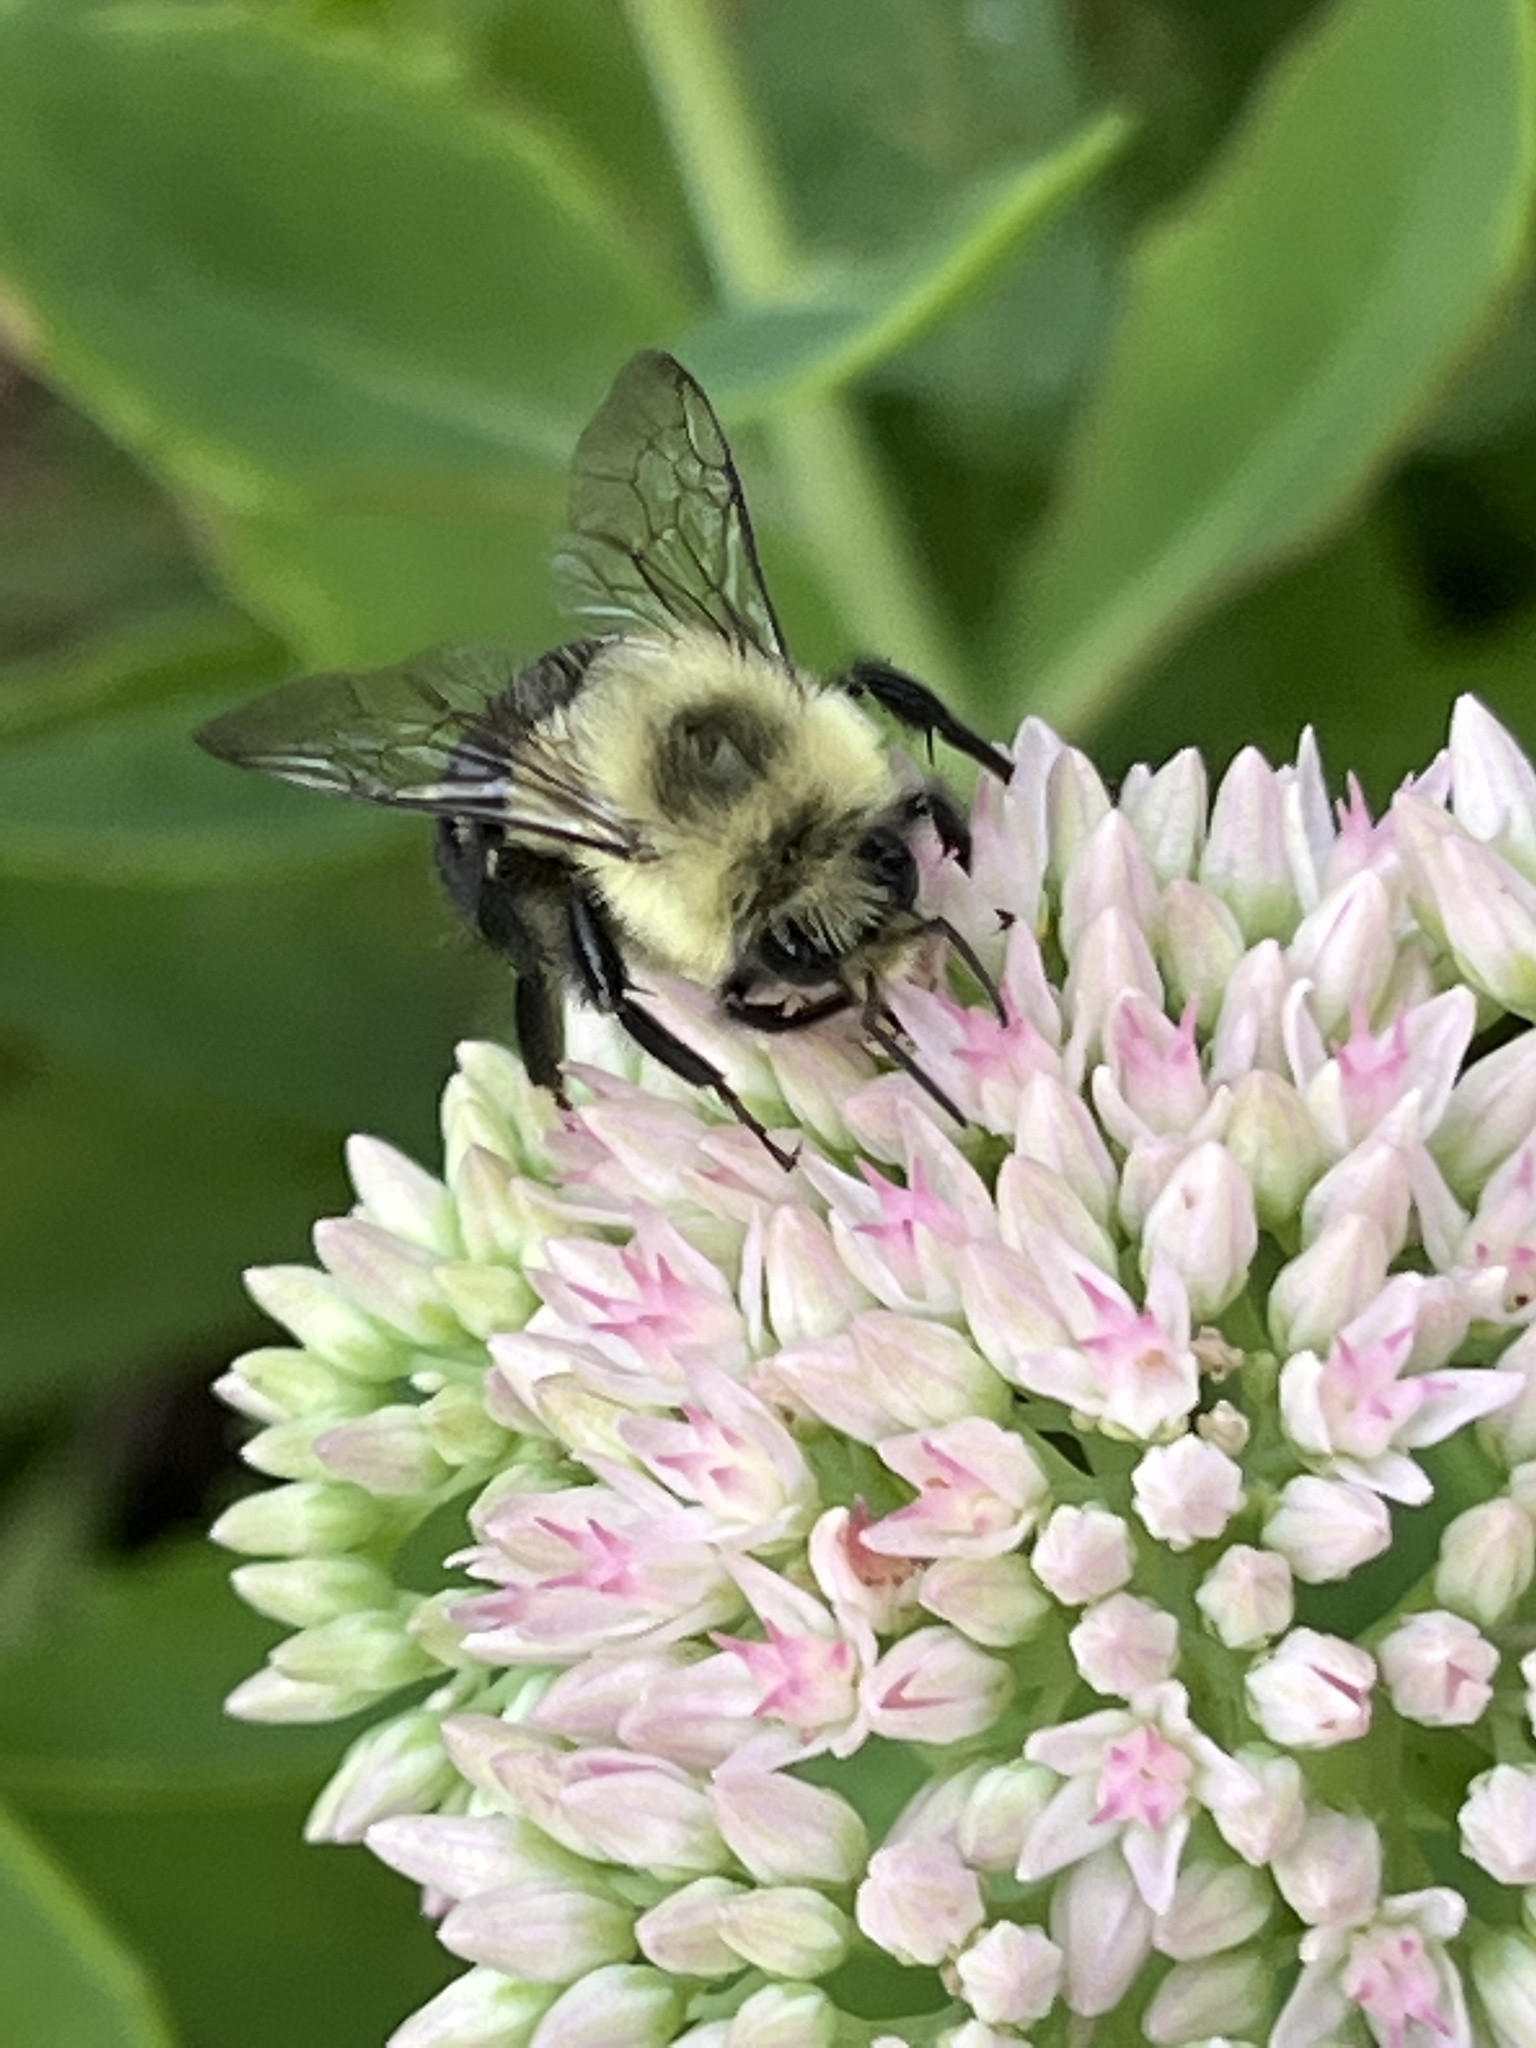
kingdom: Animalia
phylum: Arthropoda
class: Insecta
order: Hymenoptera
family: Apidae
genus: Bombus
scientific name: Bombus impatiens
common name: Common eastern bumble bee
